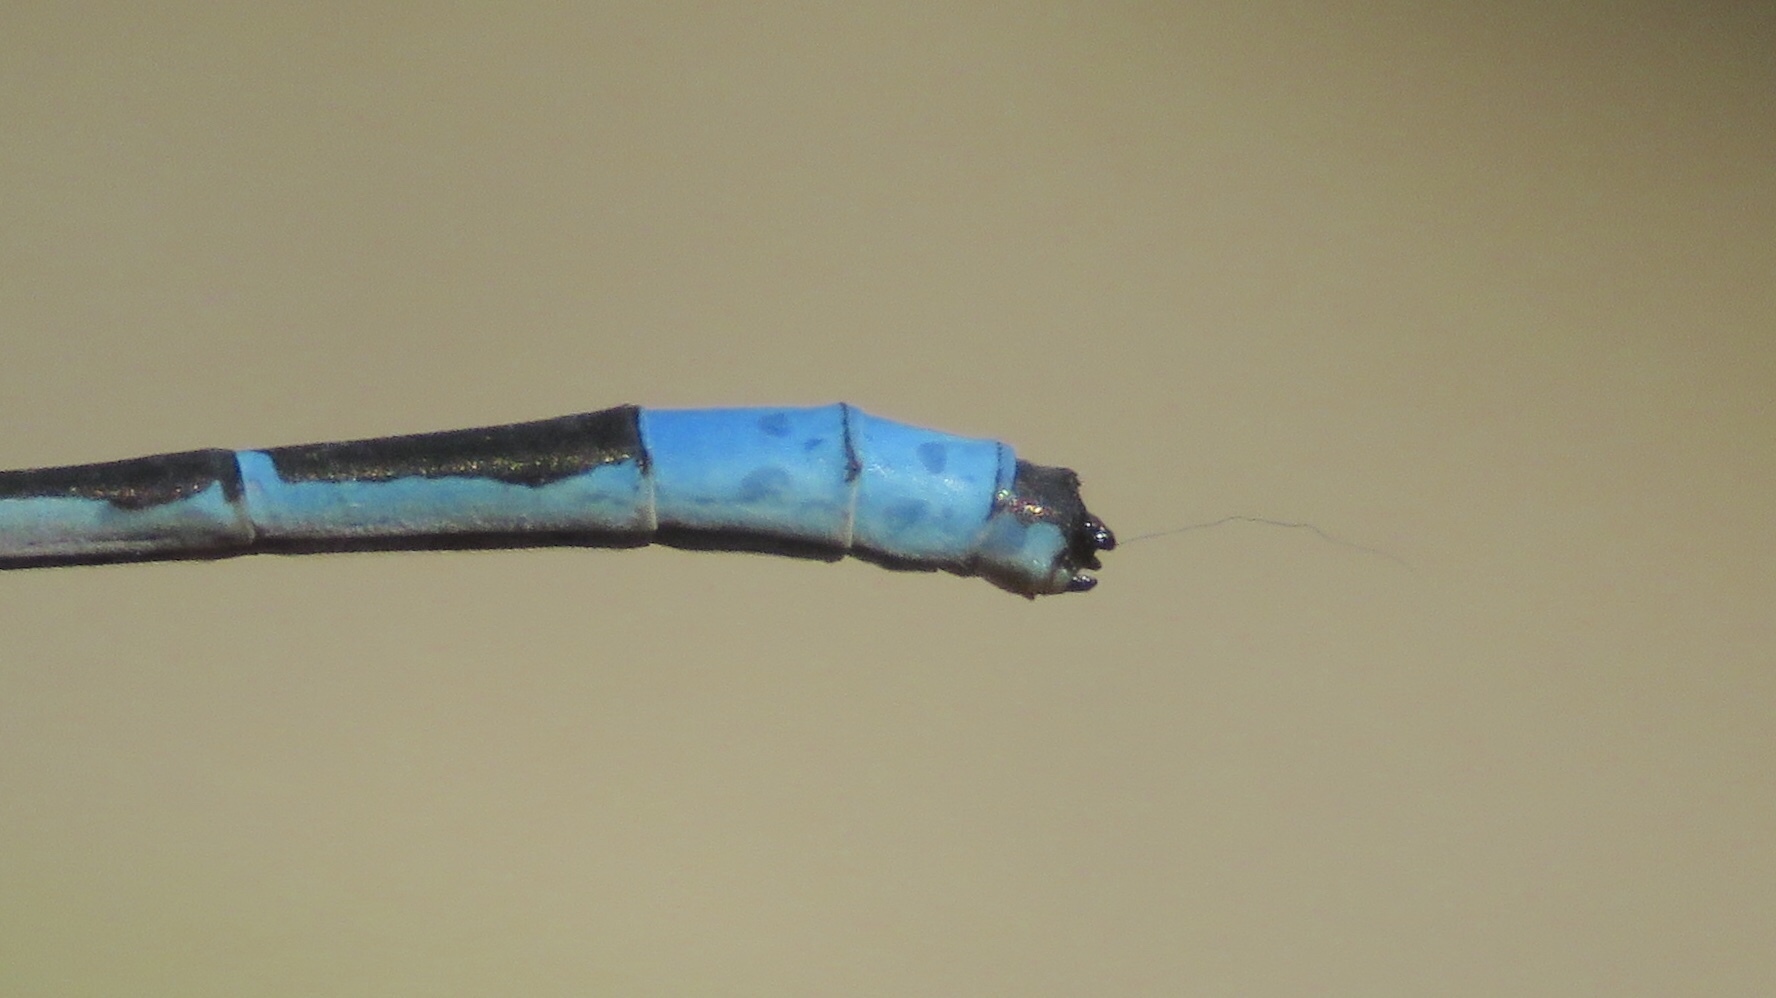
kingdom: Animalia
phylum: Arthropoda
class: Insecta
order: Odonata
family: Coenagrionidae
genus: Enallagma
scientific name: Enallagma ebrium
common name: Marsh bluet
